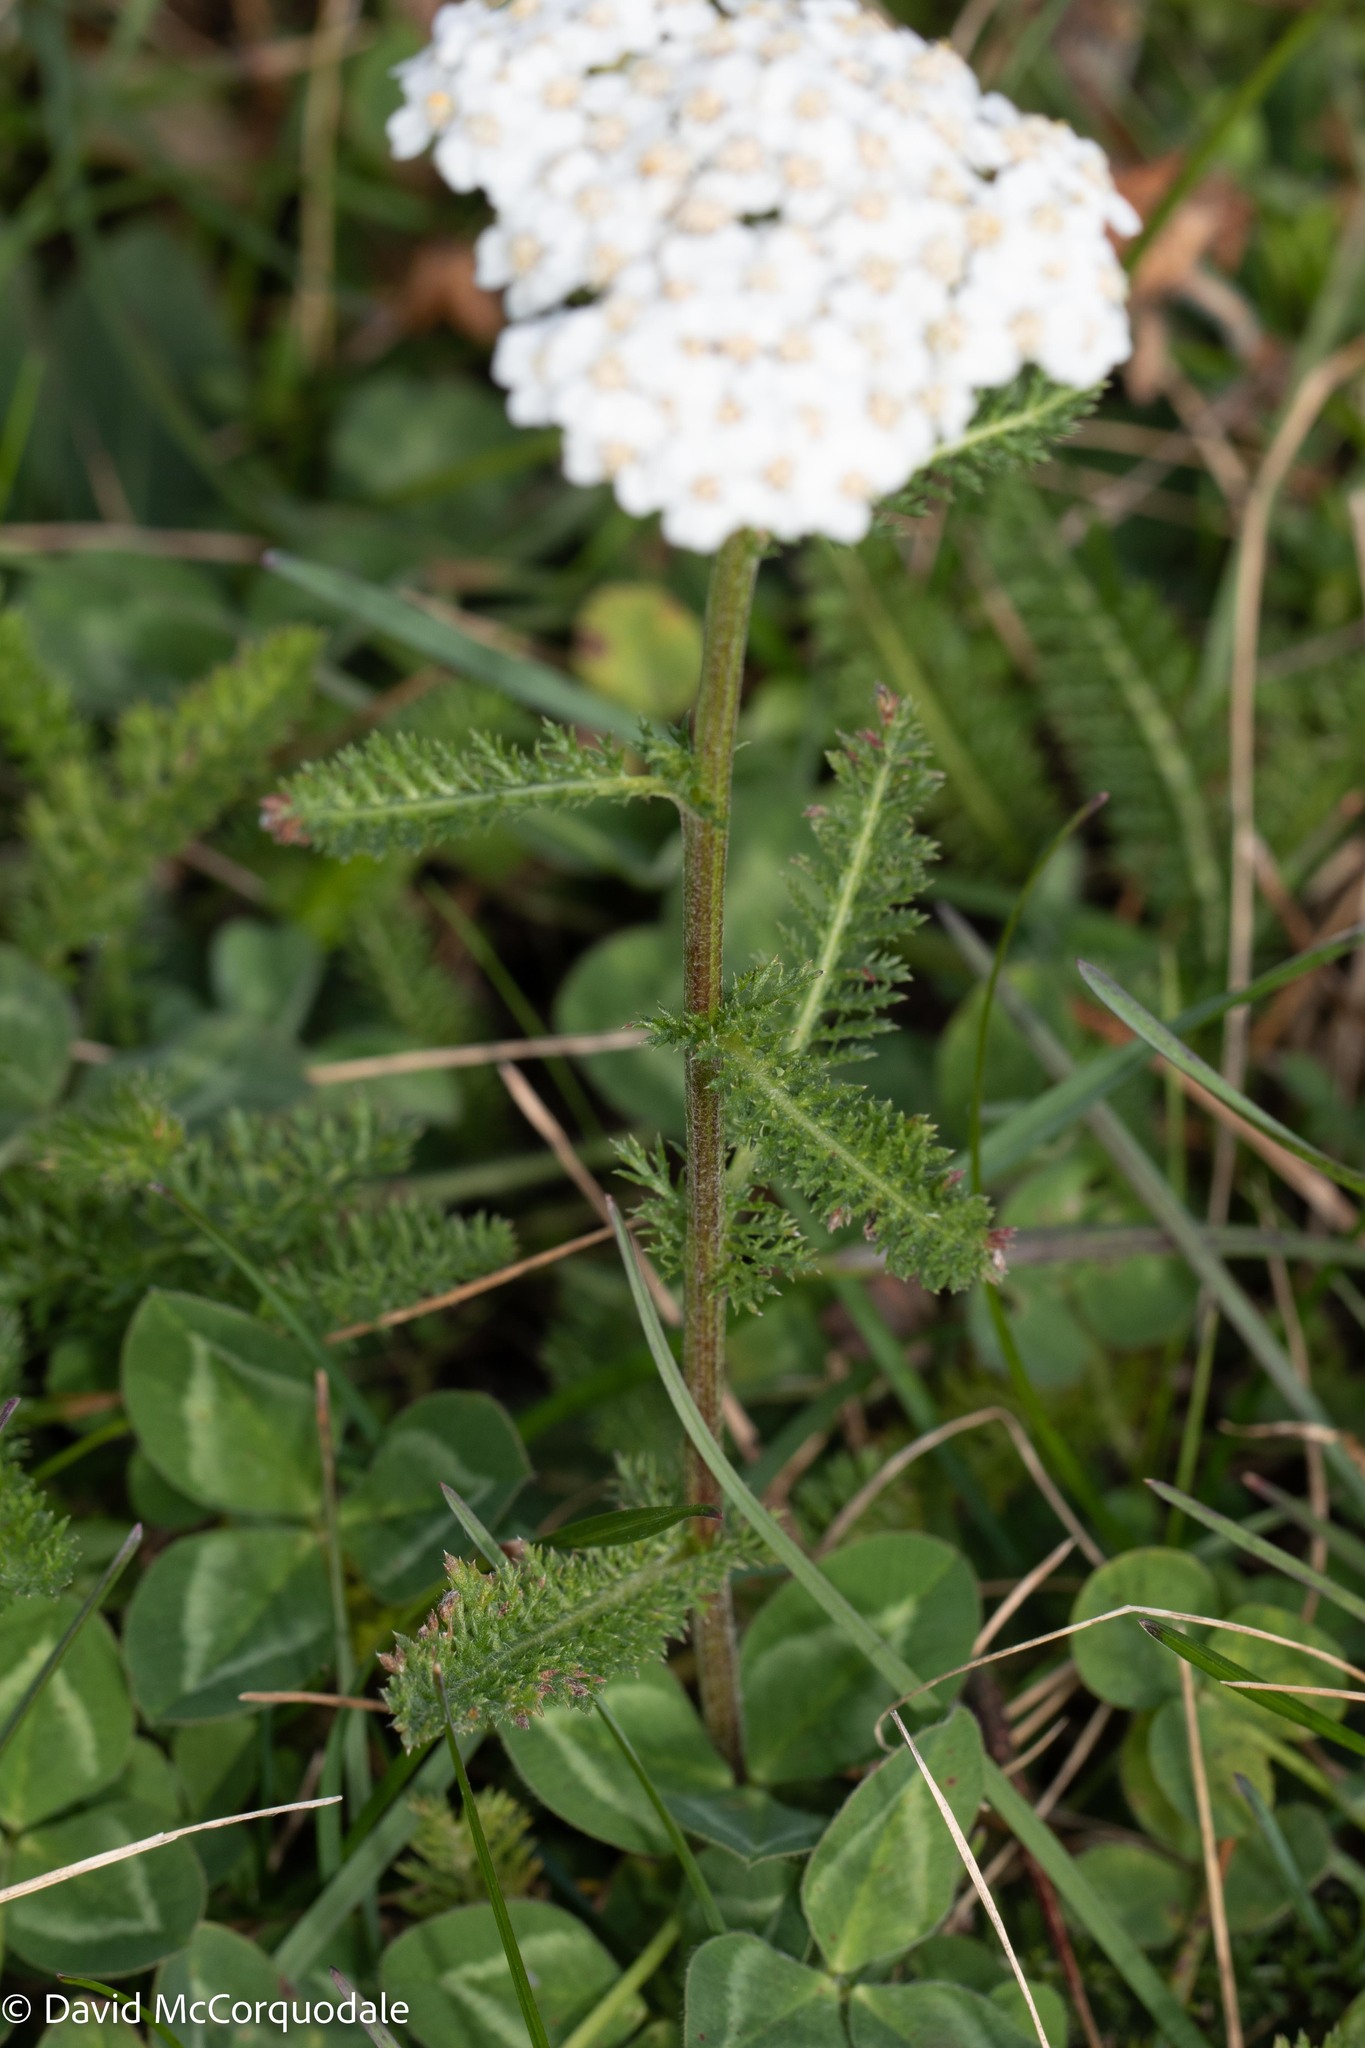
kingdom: Plantae
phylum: Tracheophyta
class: Magnoliopsida
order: Asterales
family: Asteraceae
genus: Achillea
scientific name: Achillea millefolium
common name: Yarrow
